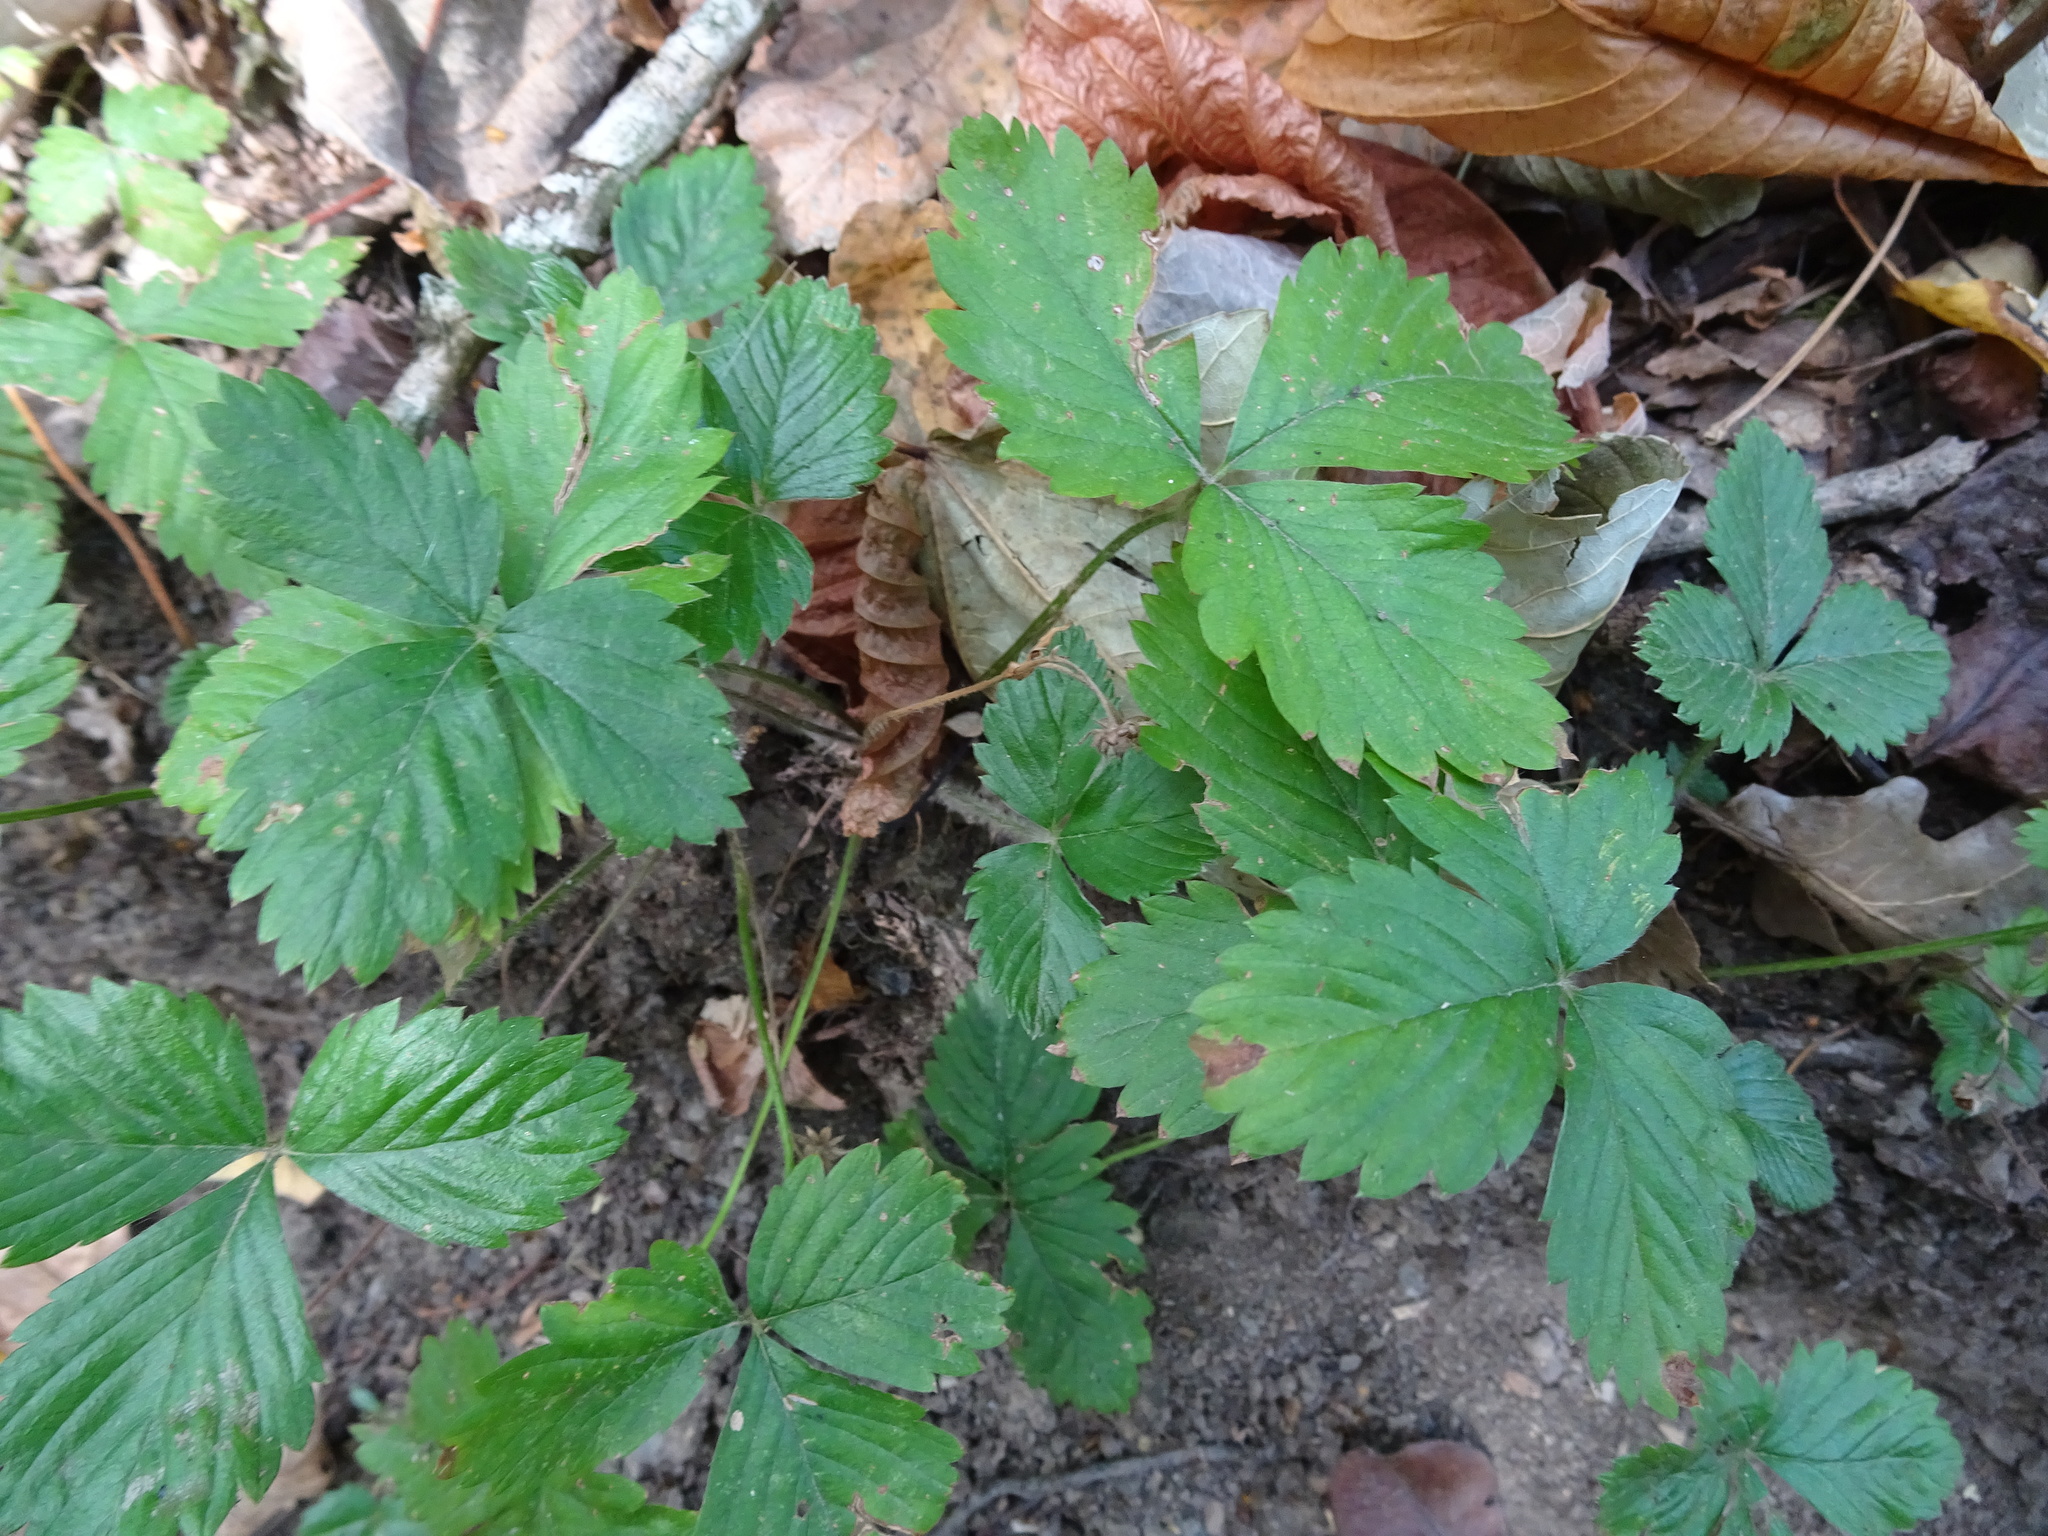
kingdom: Plantae
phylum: Tracheophyta
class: Magnoliopsida
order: Rosales
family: Rosaceae
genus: Fragaria
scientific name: Fragaria vesca
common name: Wild strawberry
